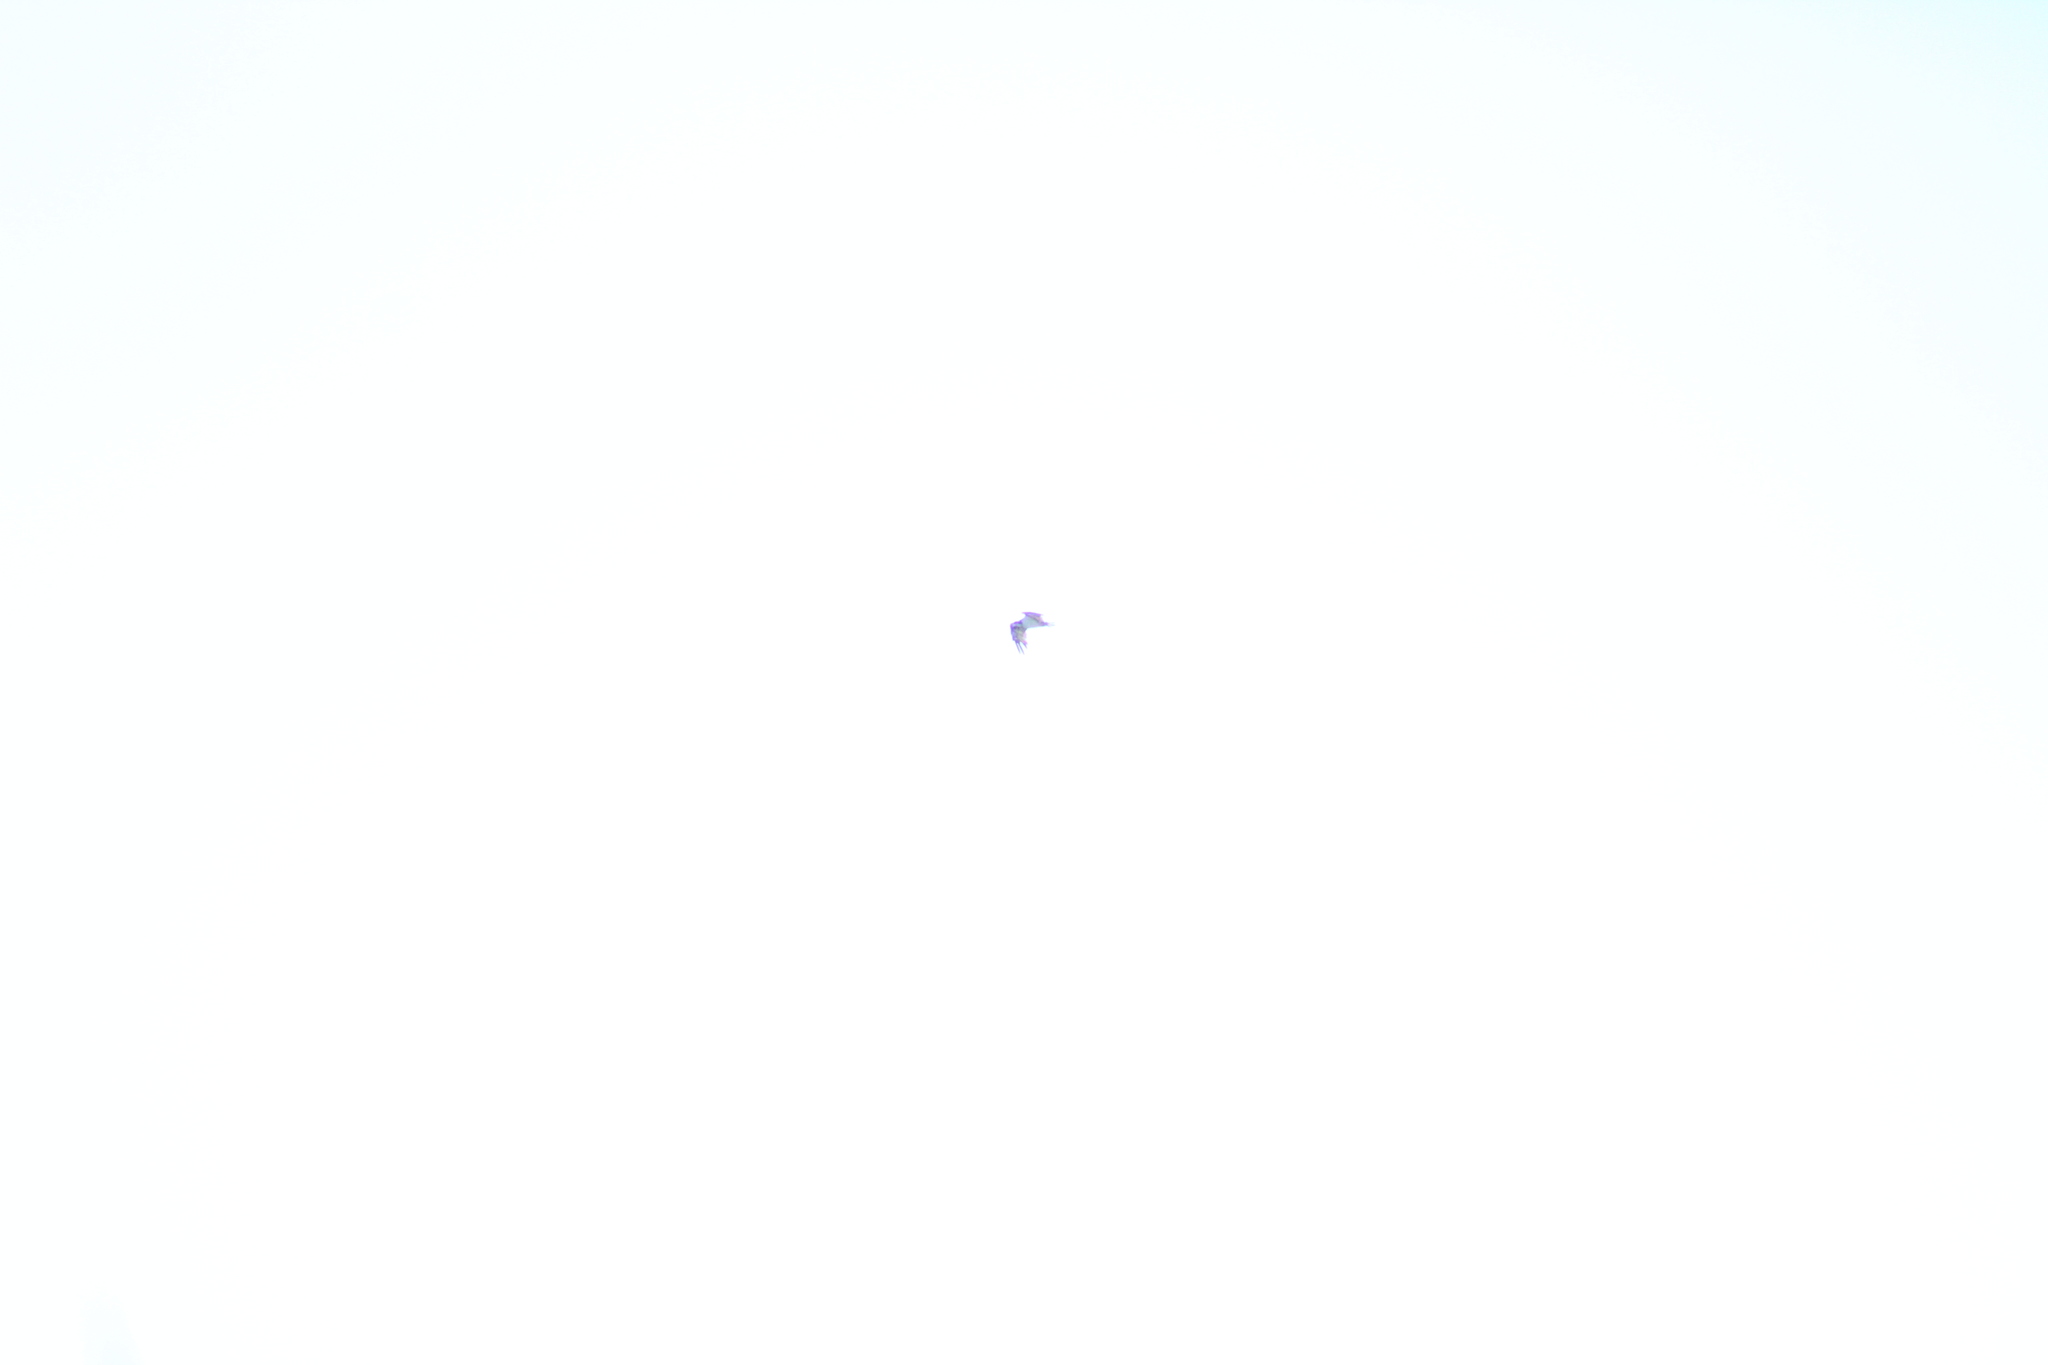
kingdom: Animalia
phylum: Chordata
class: Aves
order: Accipitriformes
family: Pandionidae
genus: Pandion
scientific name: Pandion haliaetus
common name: Osprey
